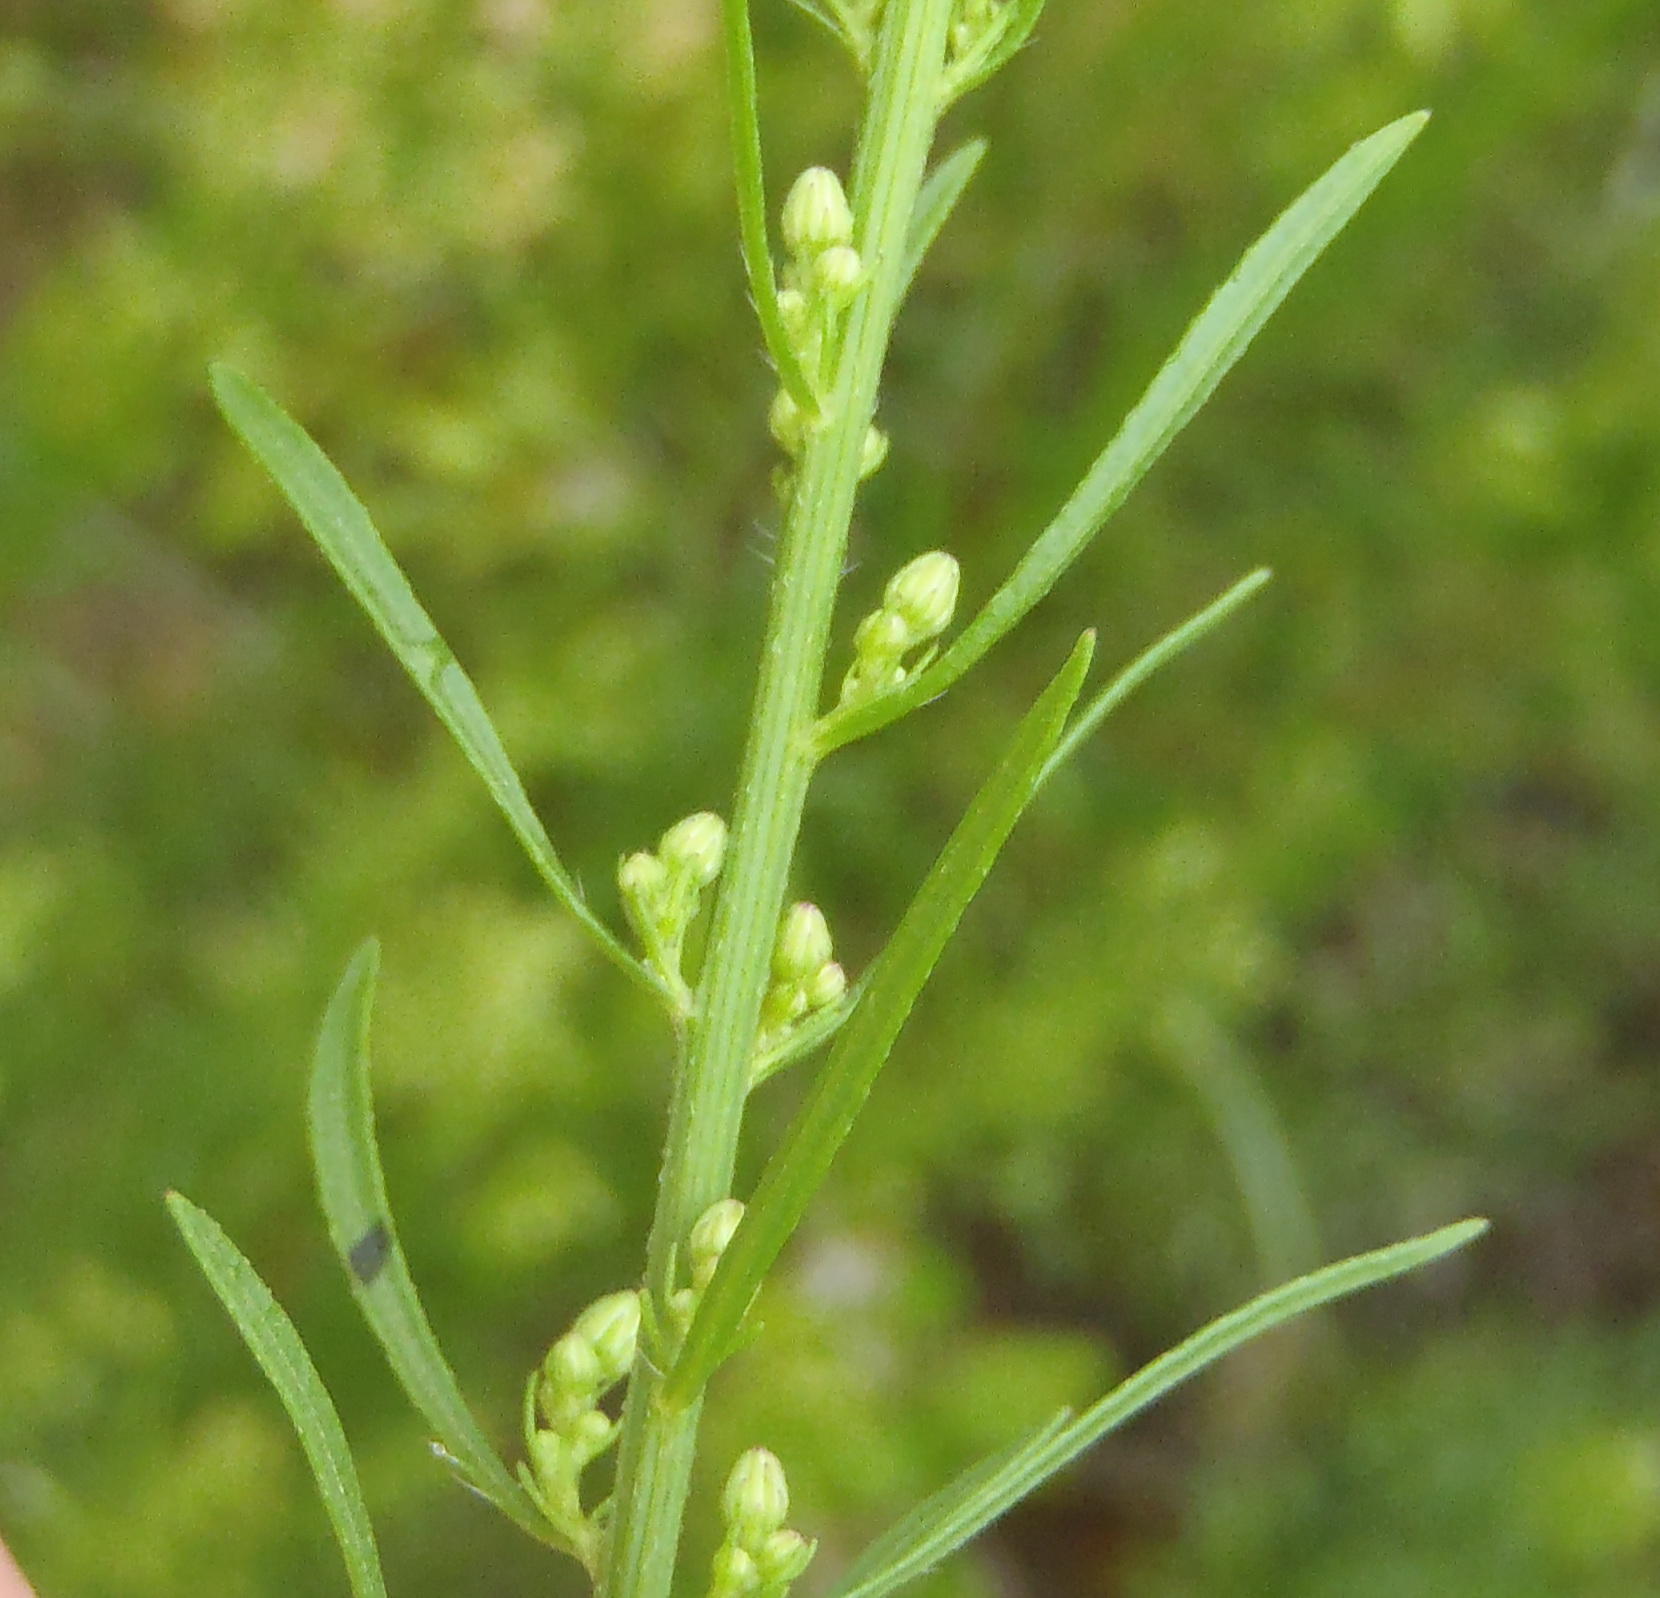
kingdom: Plantae
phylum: Tracheophyta
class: Magnoliopsida
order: Asterales
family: Asteraceae
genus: Erigeron
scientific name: Erigeron canadensis
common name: Canadian fleabane
